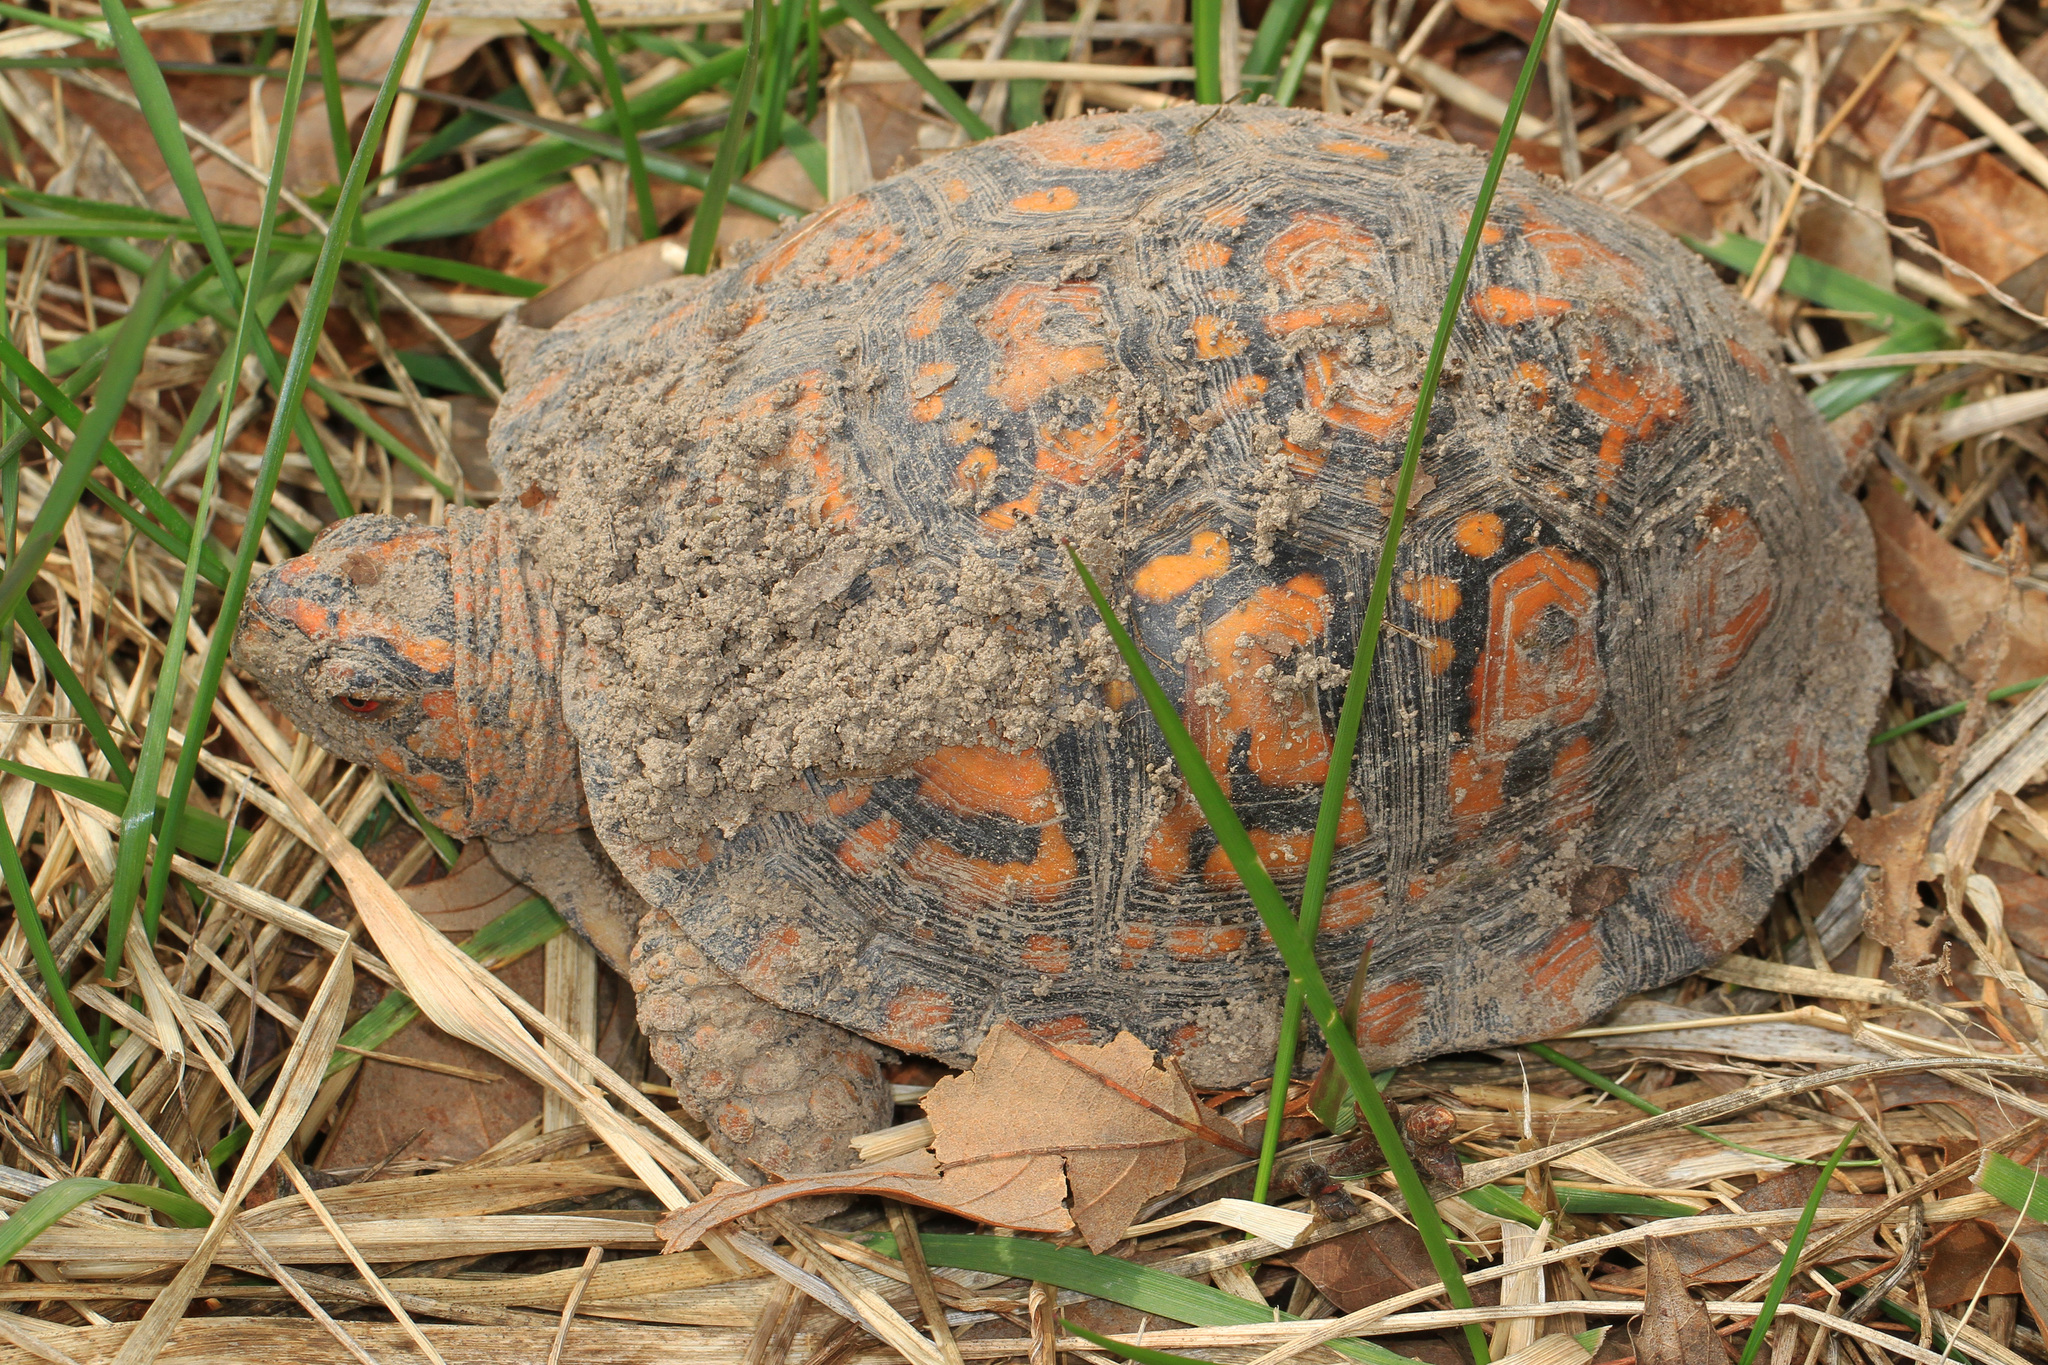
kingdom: Animalia
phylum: Chordata
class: Testudines
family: Emydidae
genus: Terrapene
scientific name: Terrapene carolina
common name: Common box turtle
